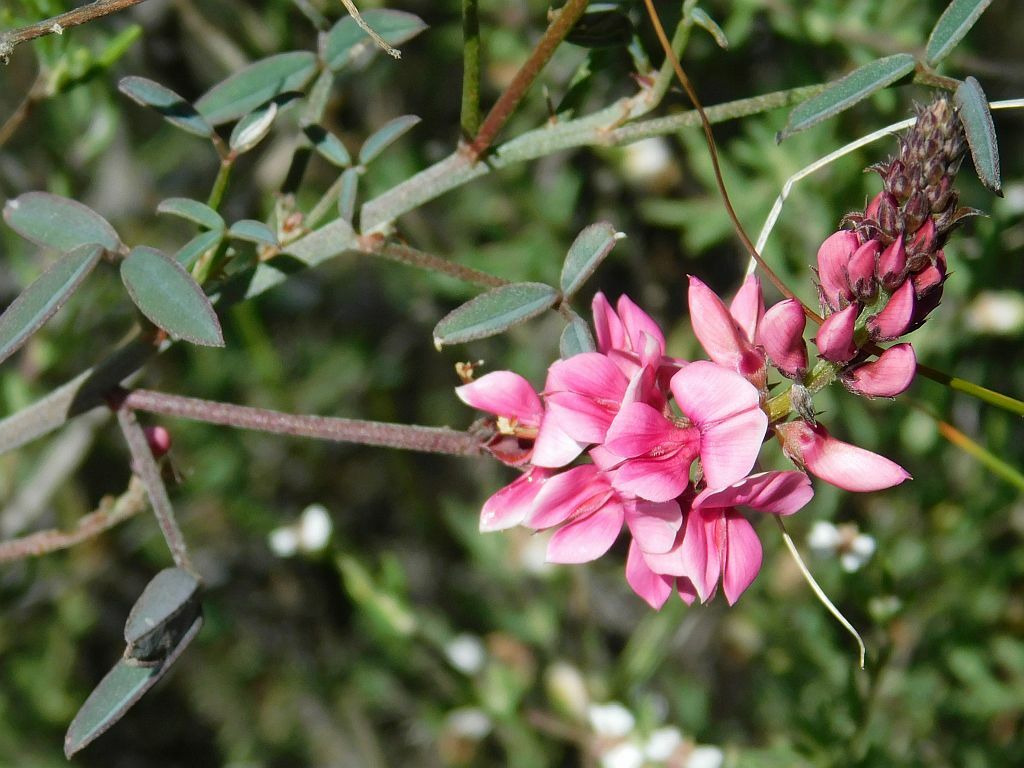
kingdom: Plantae
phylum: Tracheophyta
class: Magnoliopsida
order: Fabales
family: Fabaceae
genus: Indigofera
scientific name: Indigofera amoena
